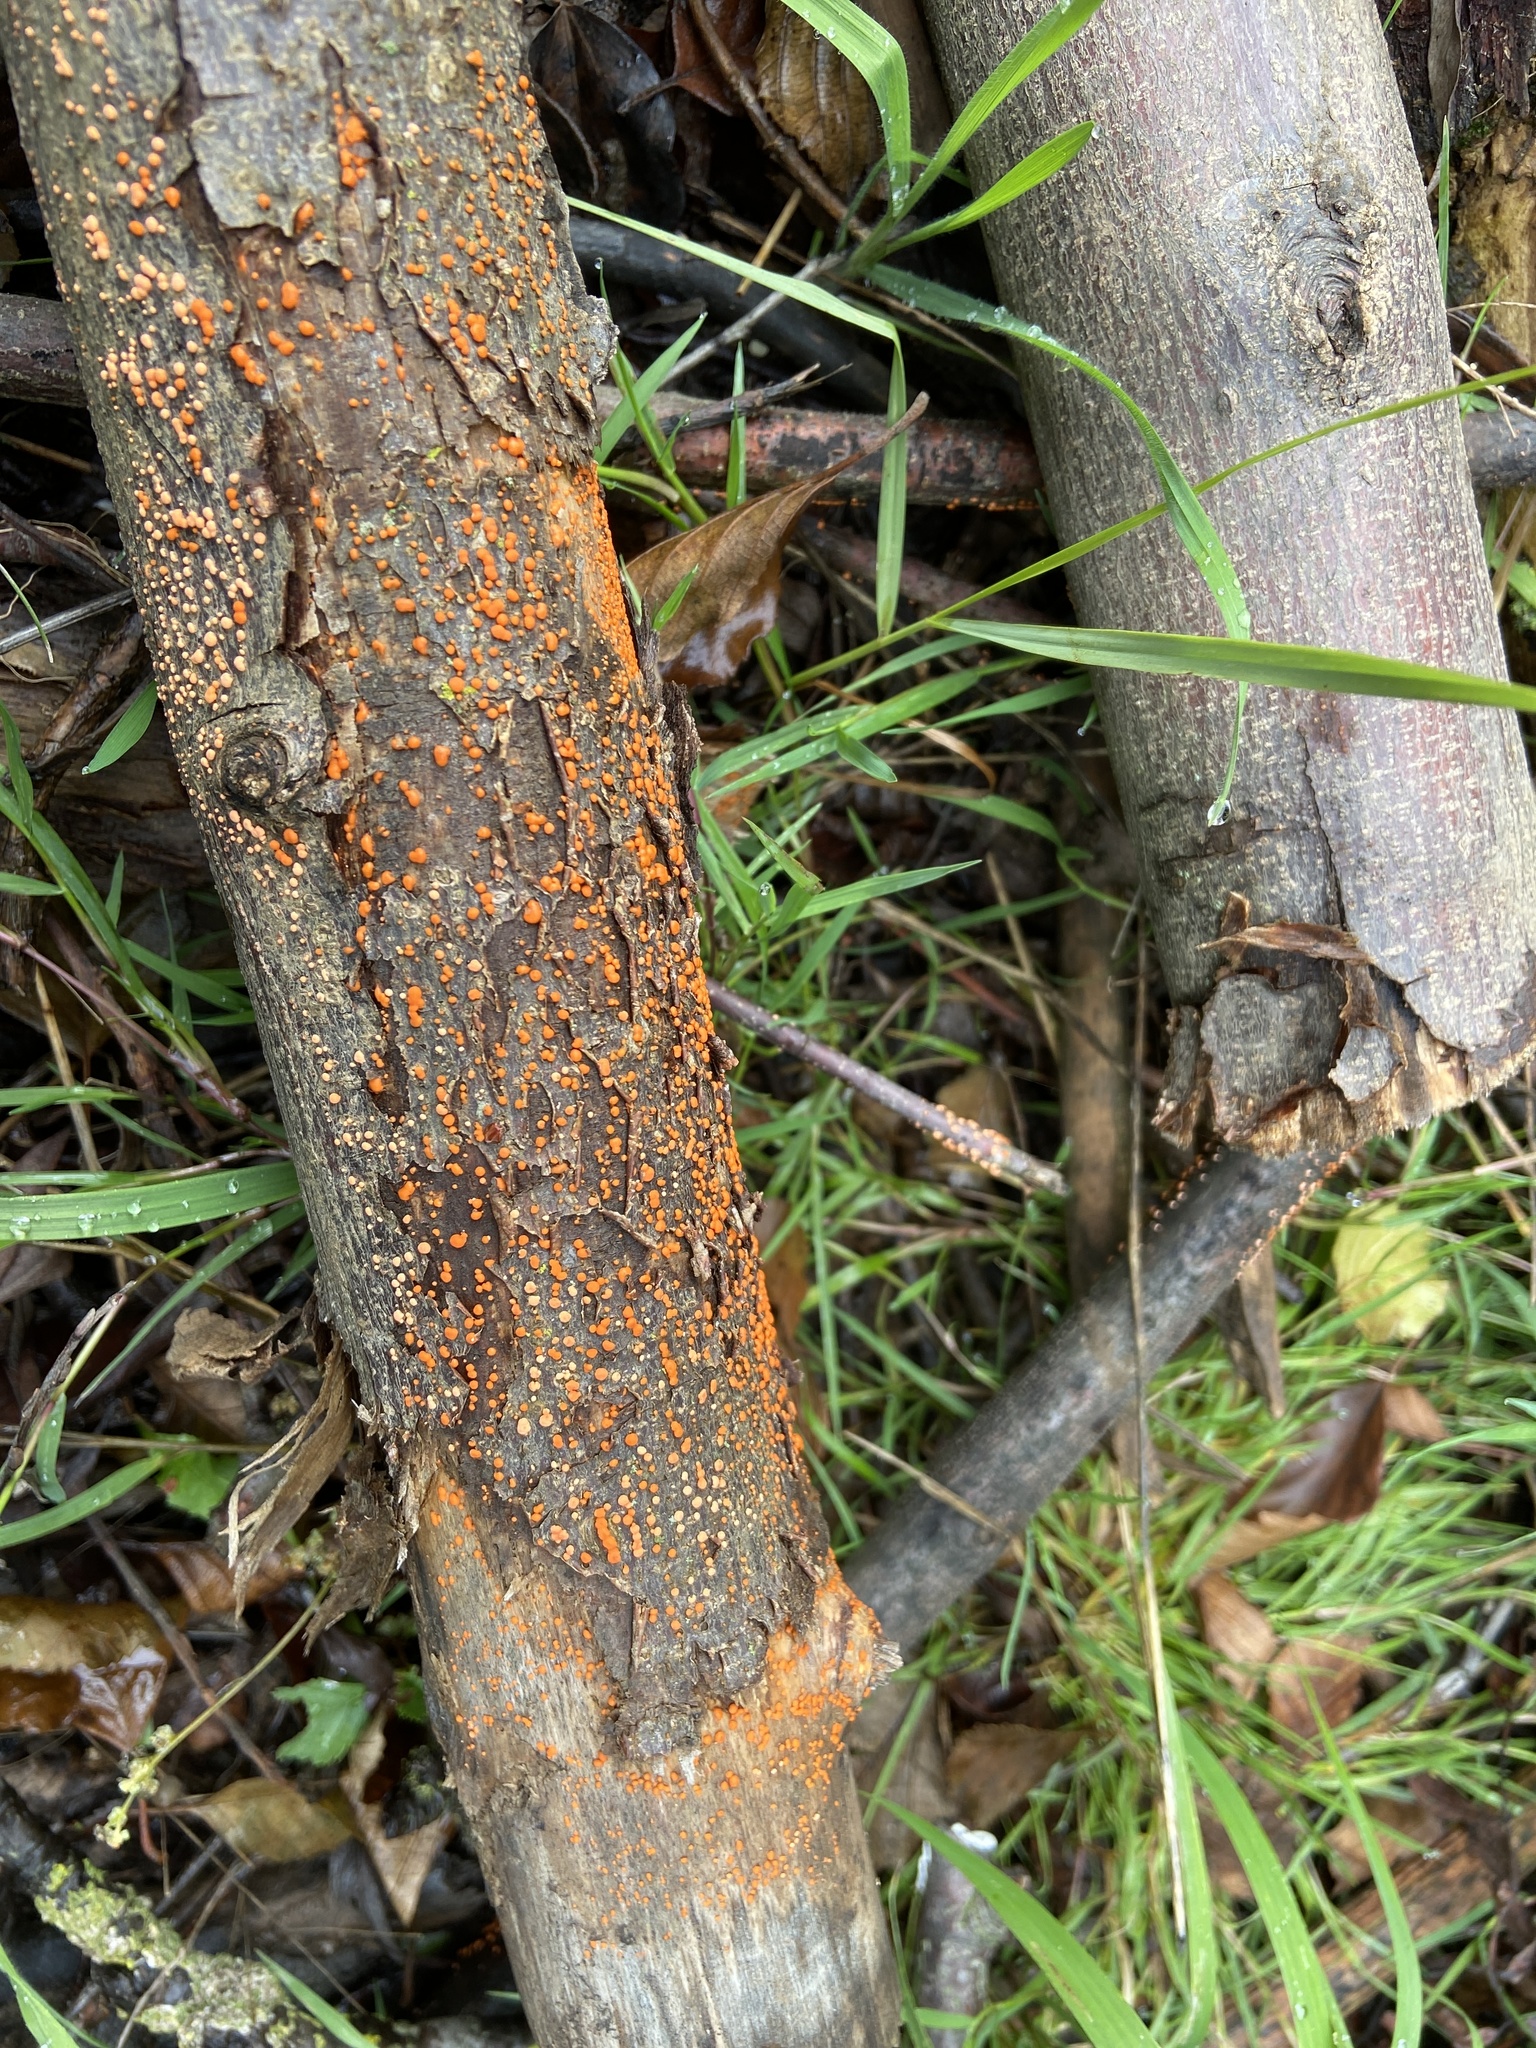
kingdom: Fungi
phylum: Ascomycota
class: Sordariomycetes
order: Hypocreales
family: Nectriaceae
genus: Nectria
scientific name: Nectria cinnabarina
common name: Coral spot
